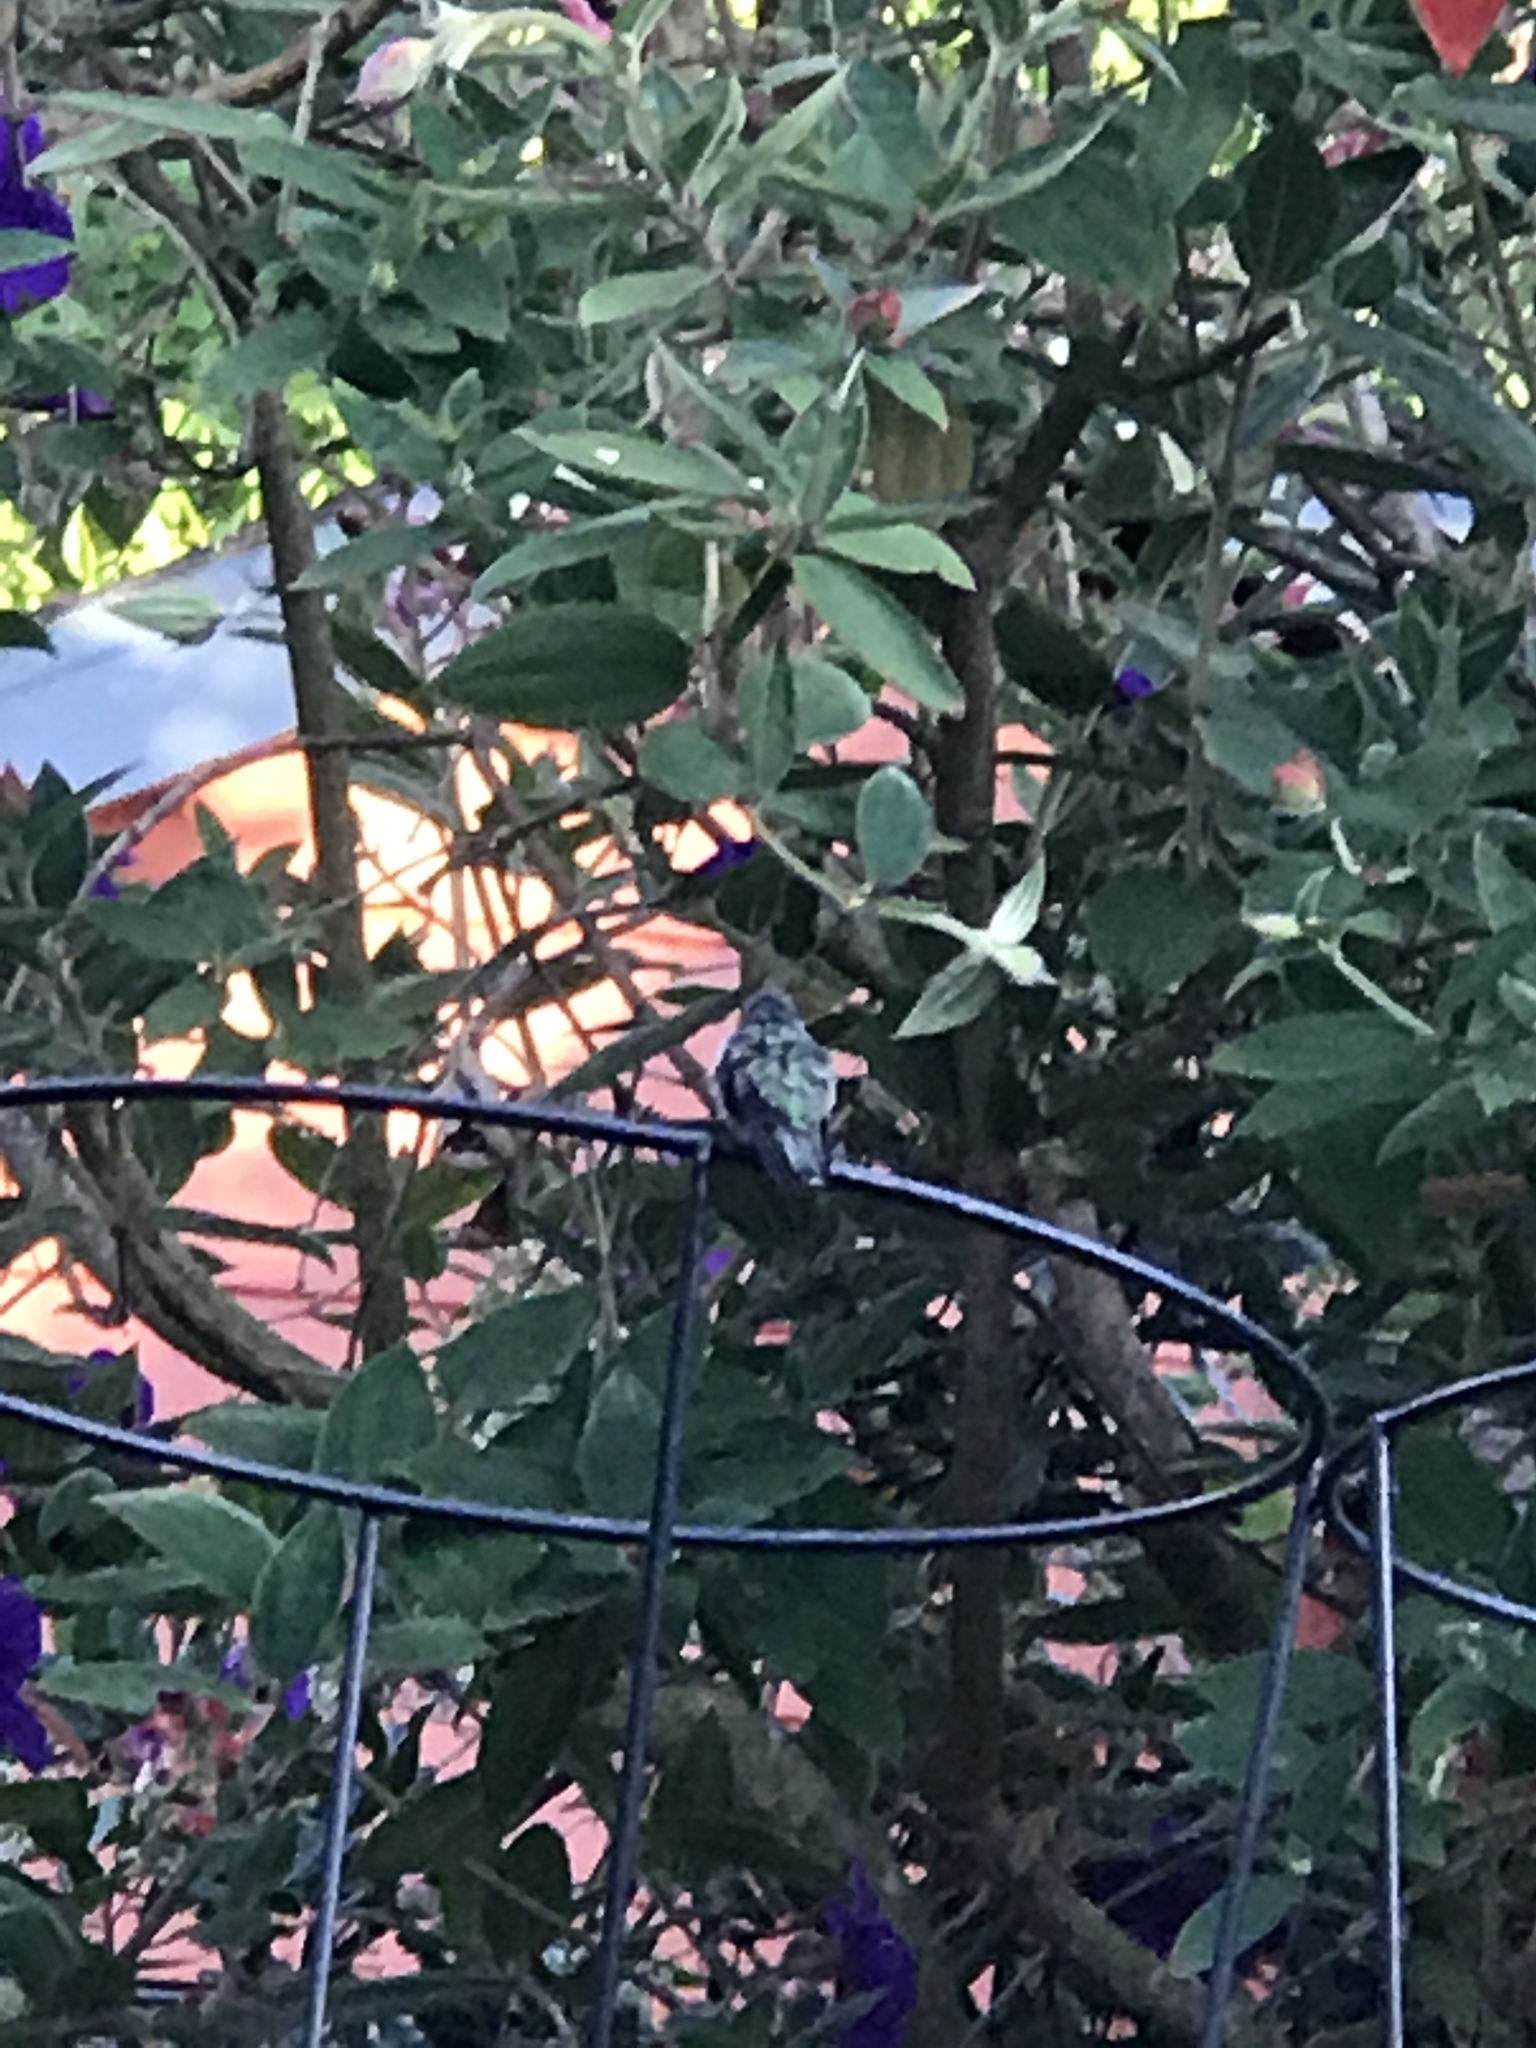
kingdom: Animalia
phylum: Chordata
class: Aves
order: Apodiformes
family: Trochilidae
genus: Calypte
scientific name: Calypte anna
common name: Anna's hummingbird
